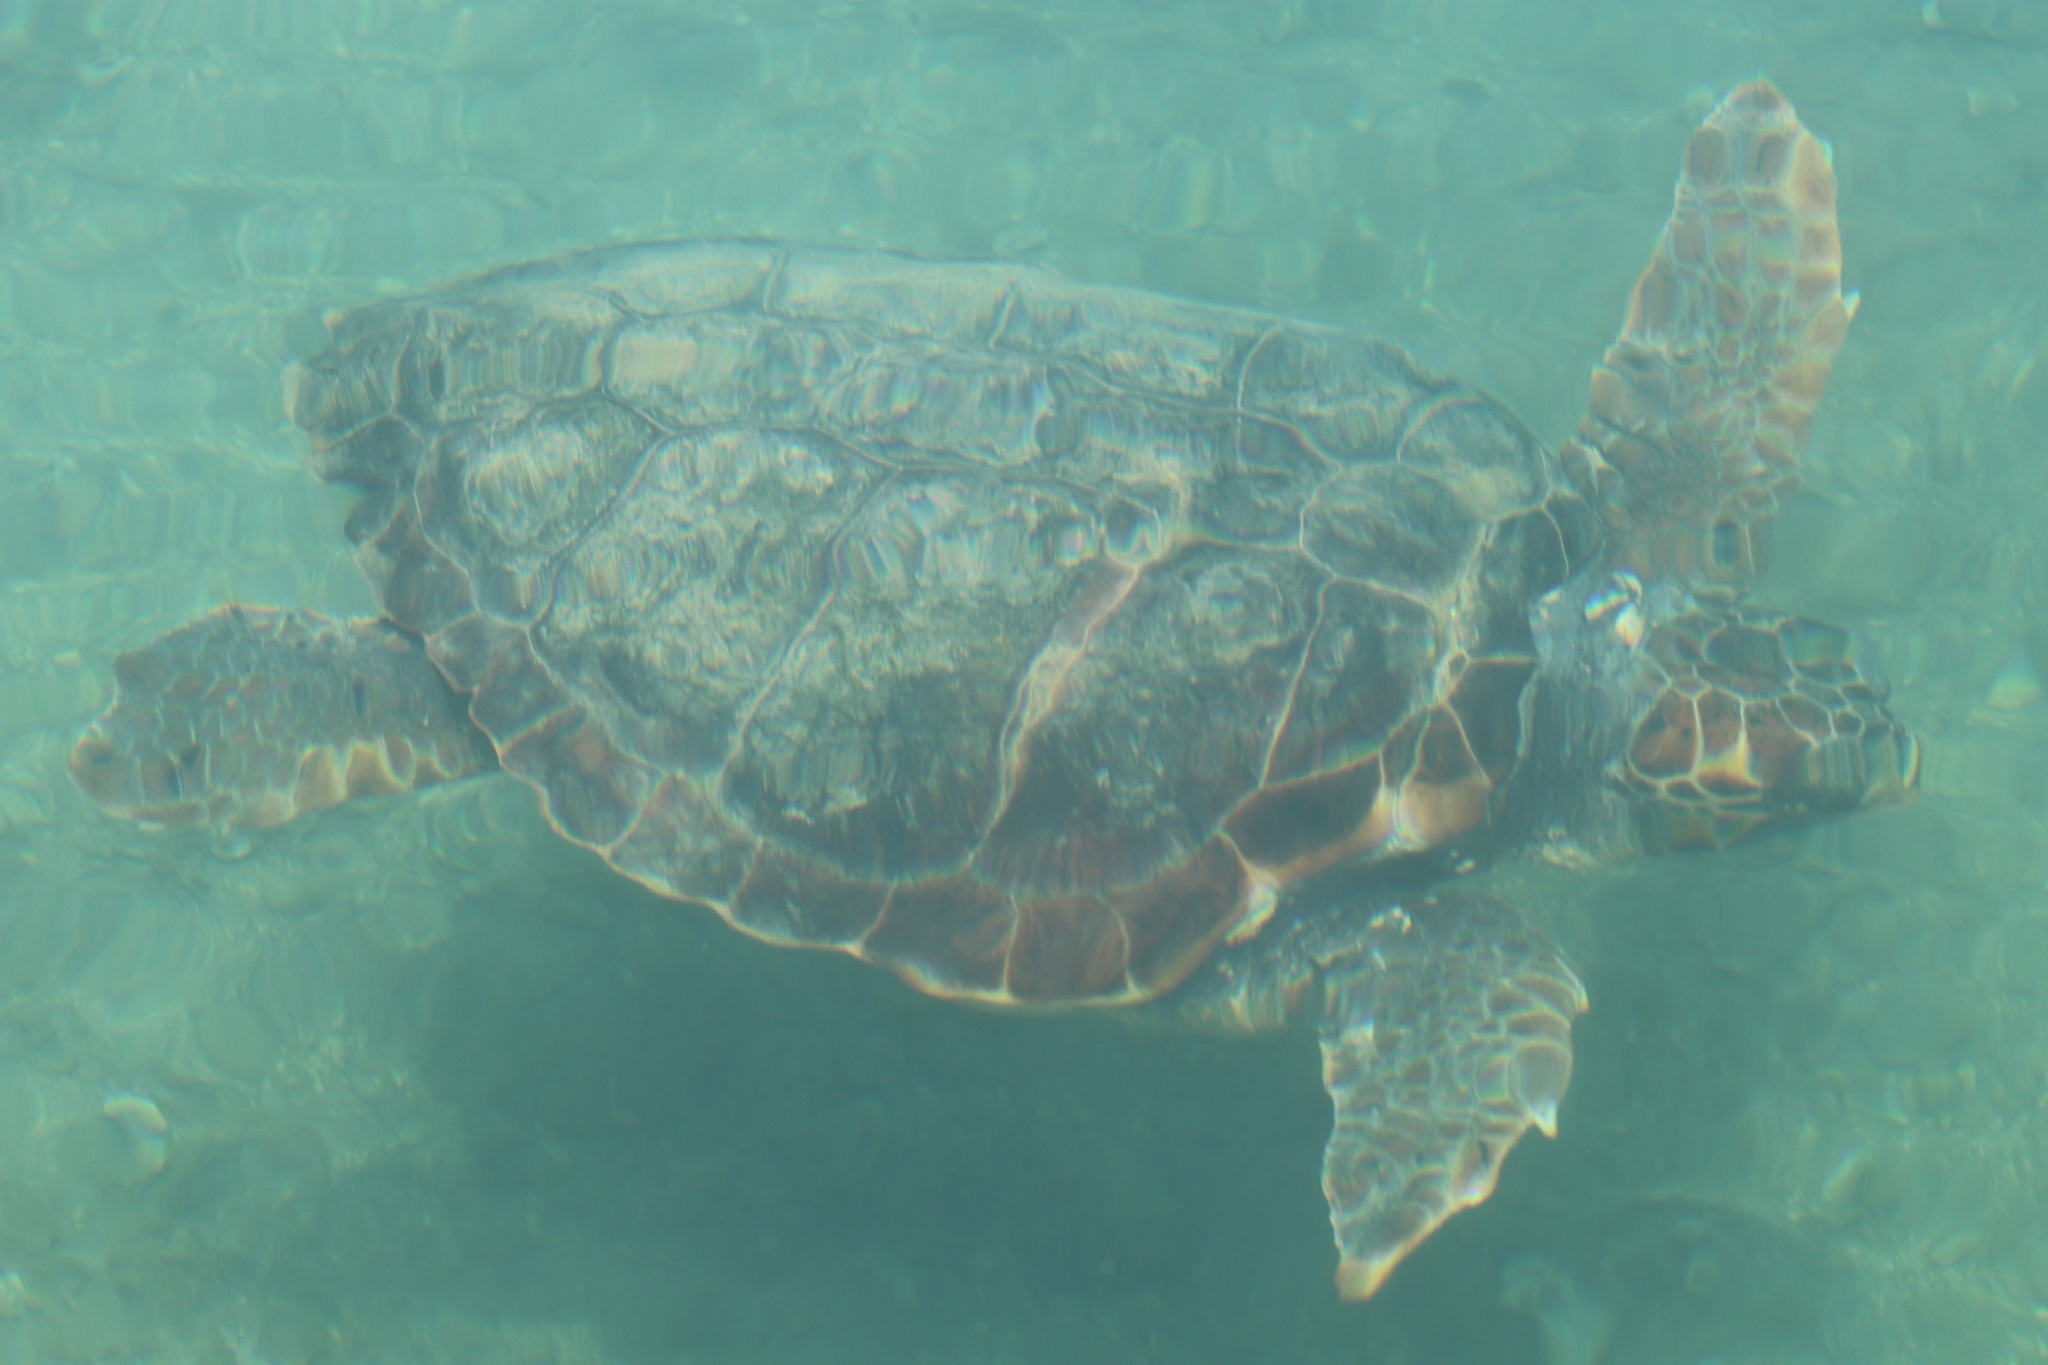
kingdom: Animalia
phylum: Chordata
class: Testudines
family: Cheloniidae
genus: Caretta
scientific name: Caretta caretta
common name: Loggerhead sea turtle
